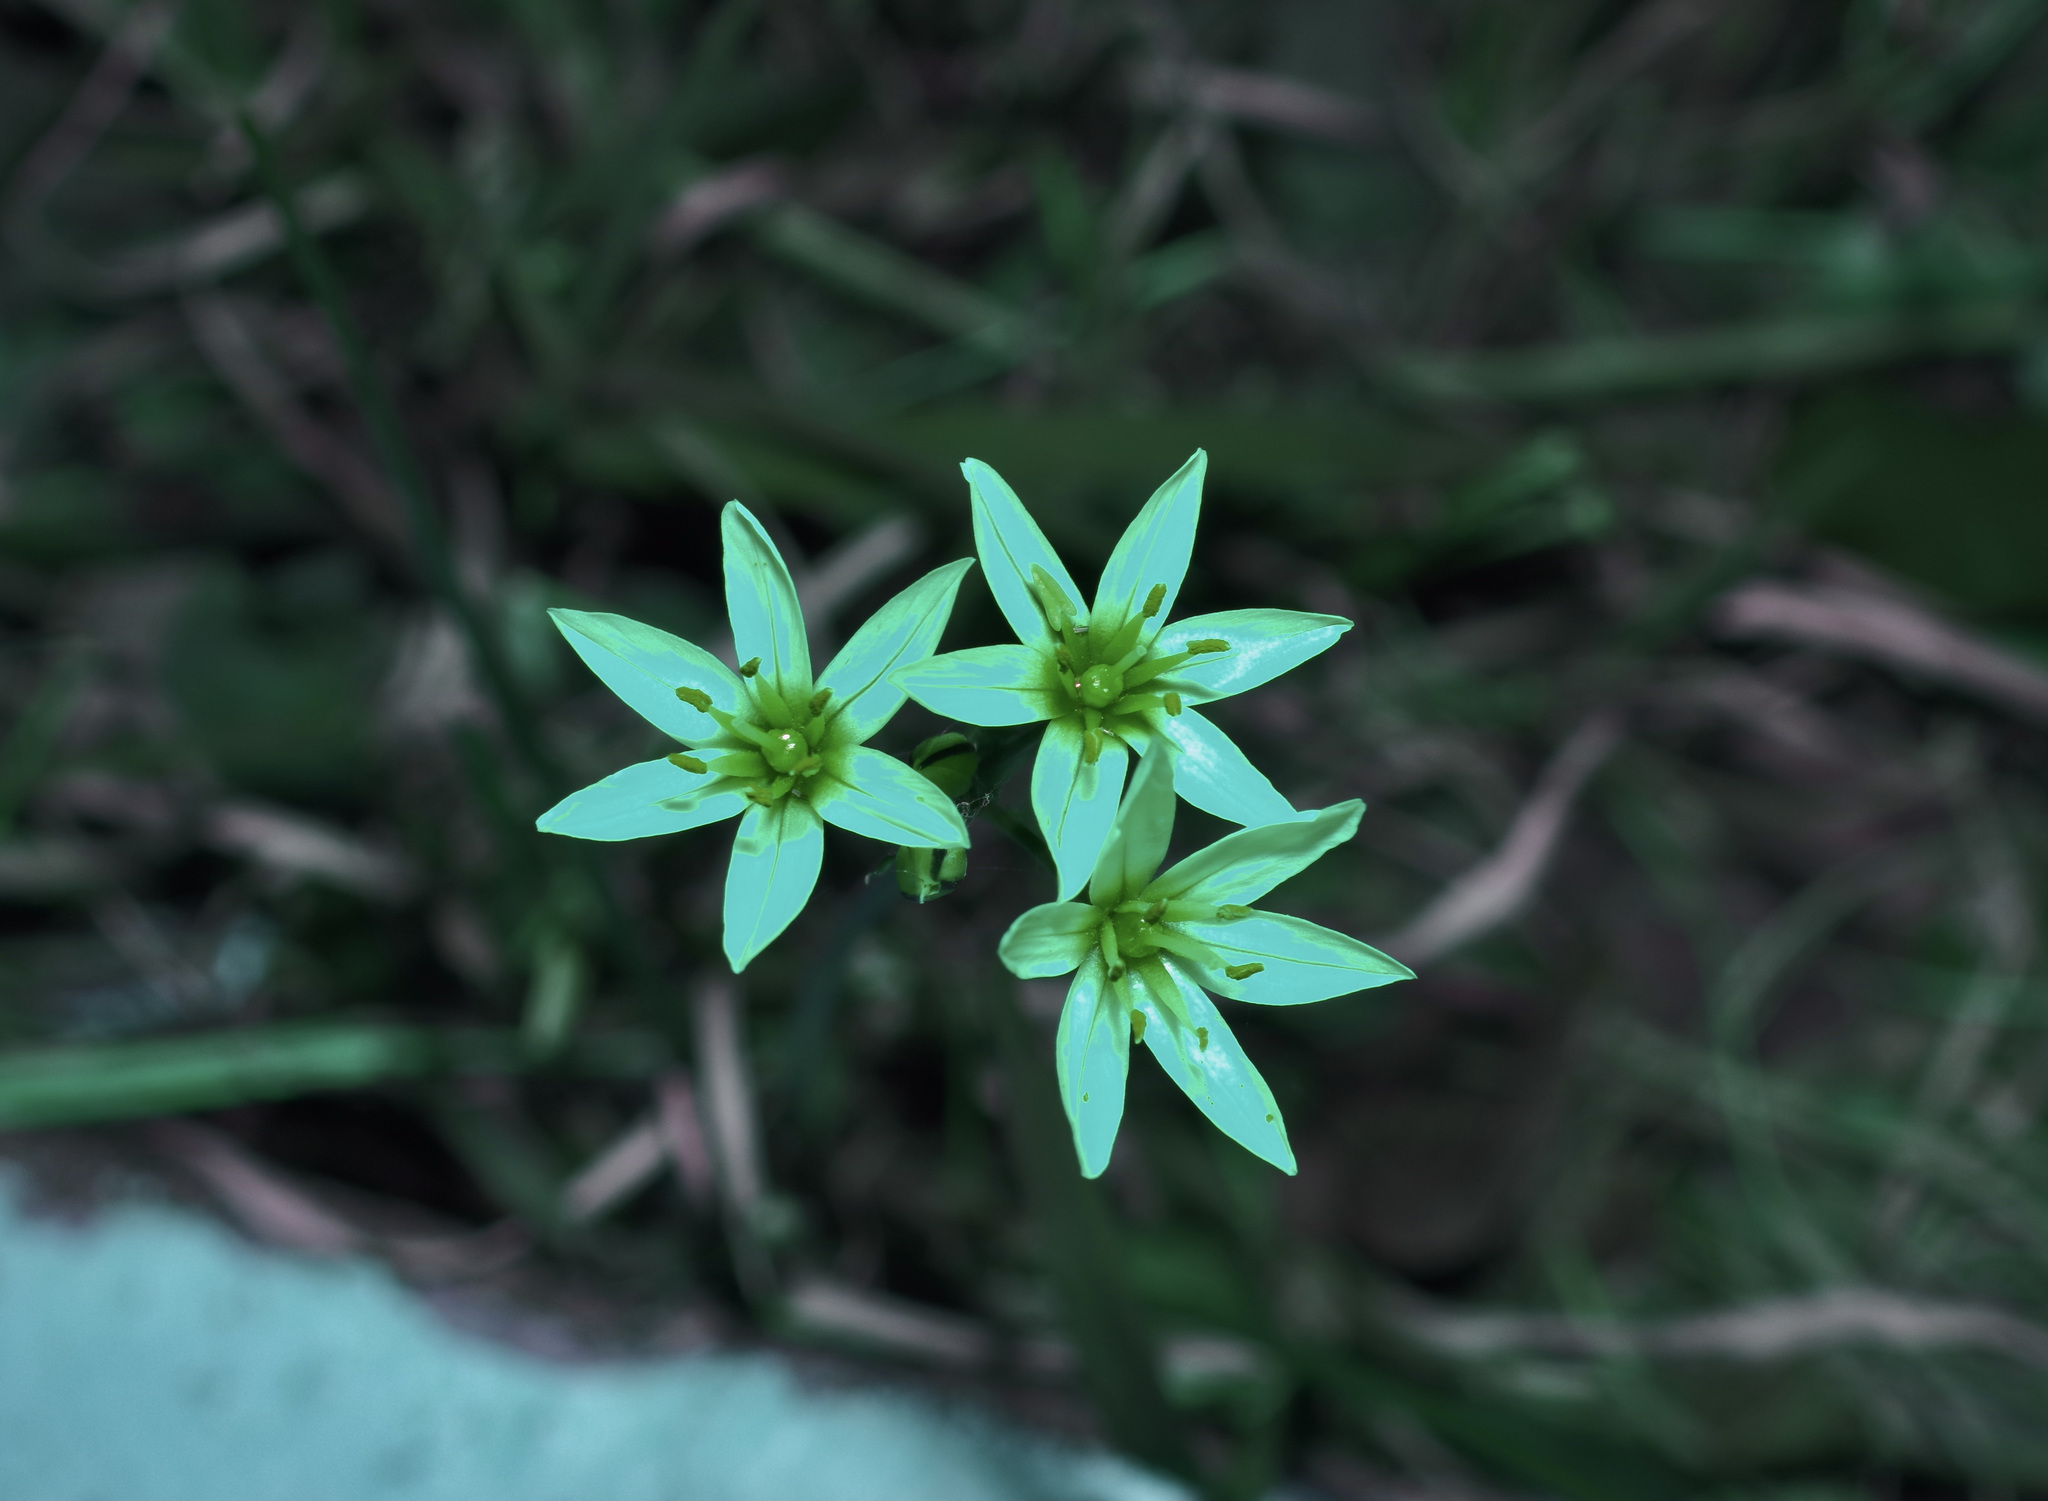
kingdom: Plantae
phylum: Tracheophyta
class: Liliopsida
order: Asparagales
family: Amaryllidaceae
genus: Nothoscordum
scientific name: Nothoscordum bivalve
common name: Crow-poison
